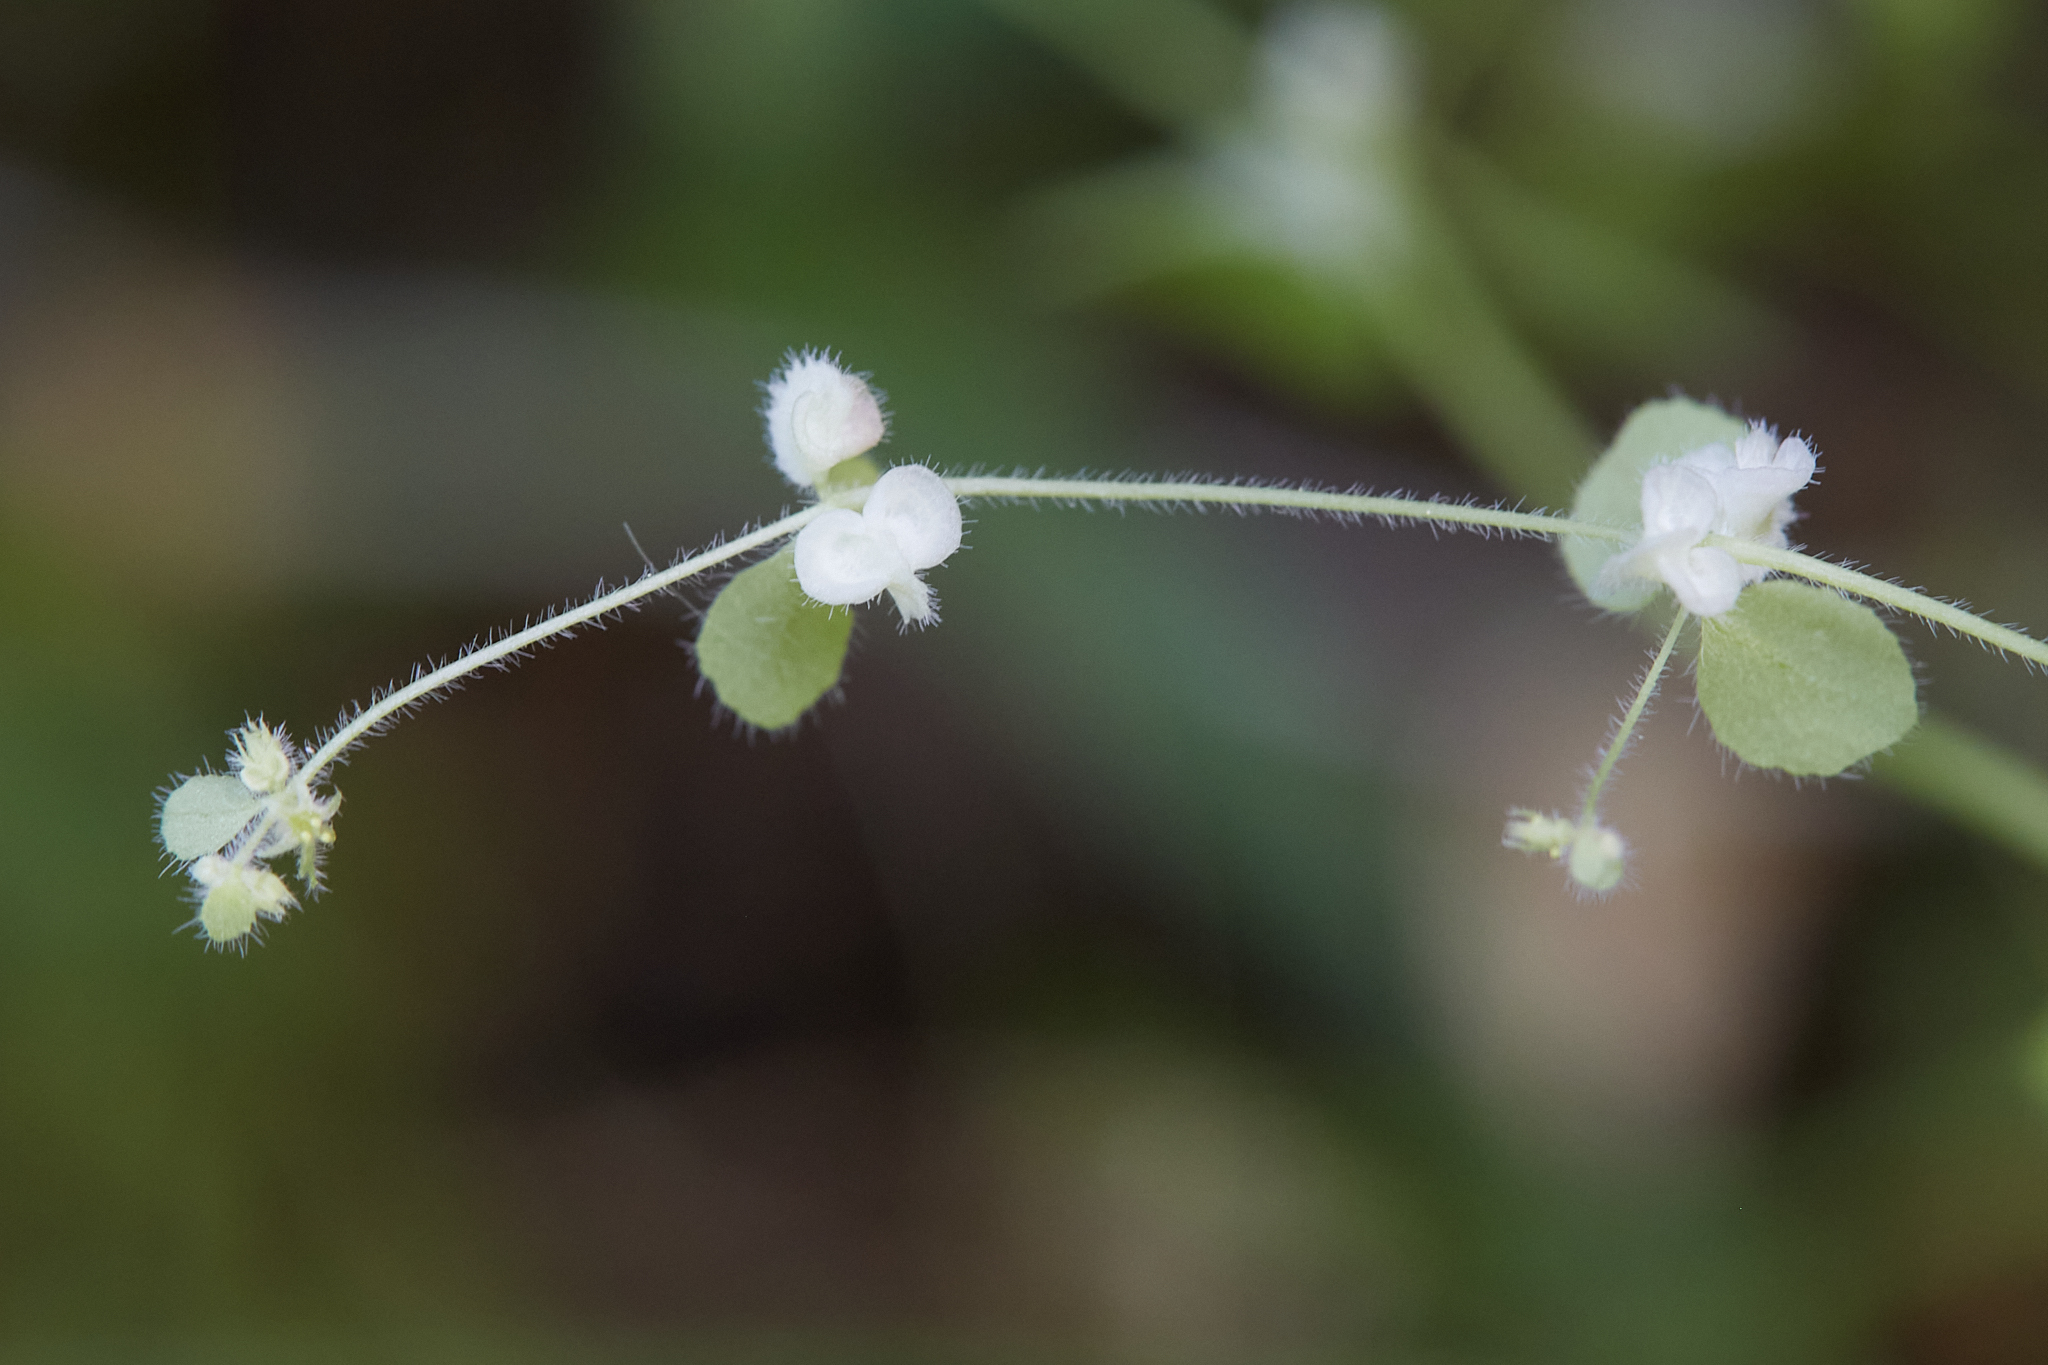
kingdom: Plantae
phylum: Tracheophyta
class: Magnoliopsida
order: Caryophyllales
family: Polygonaceae
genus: Pterostegia
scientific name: Pterostegia drymarioides
